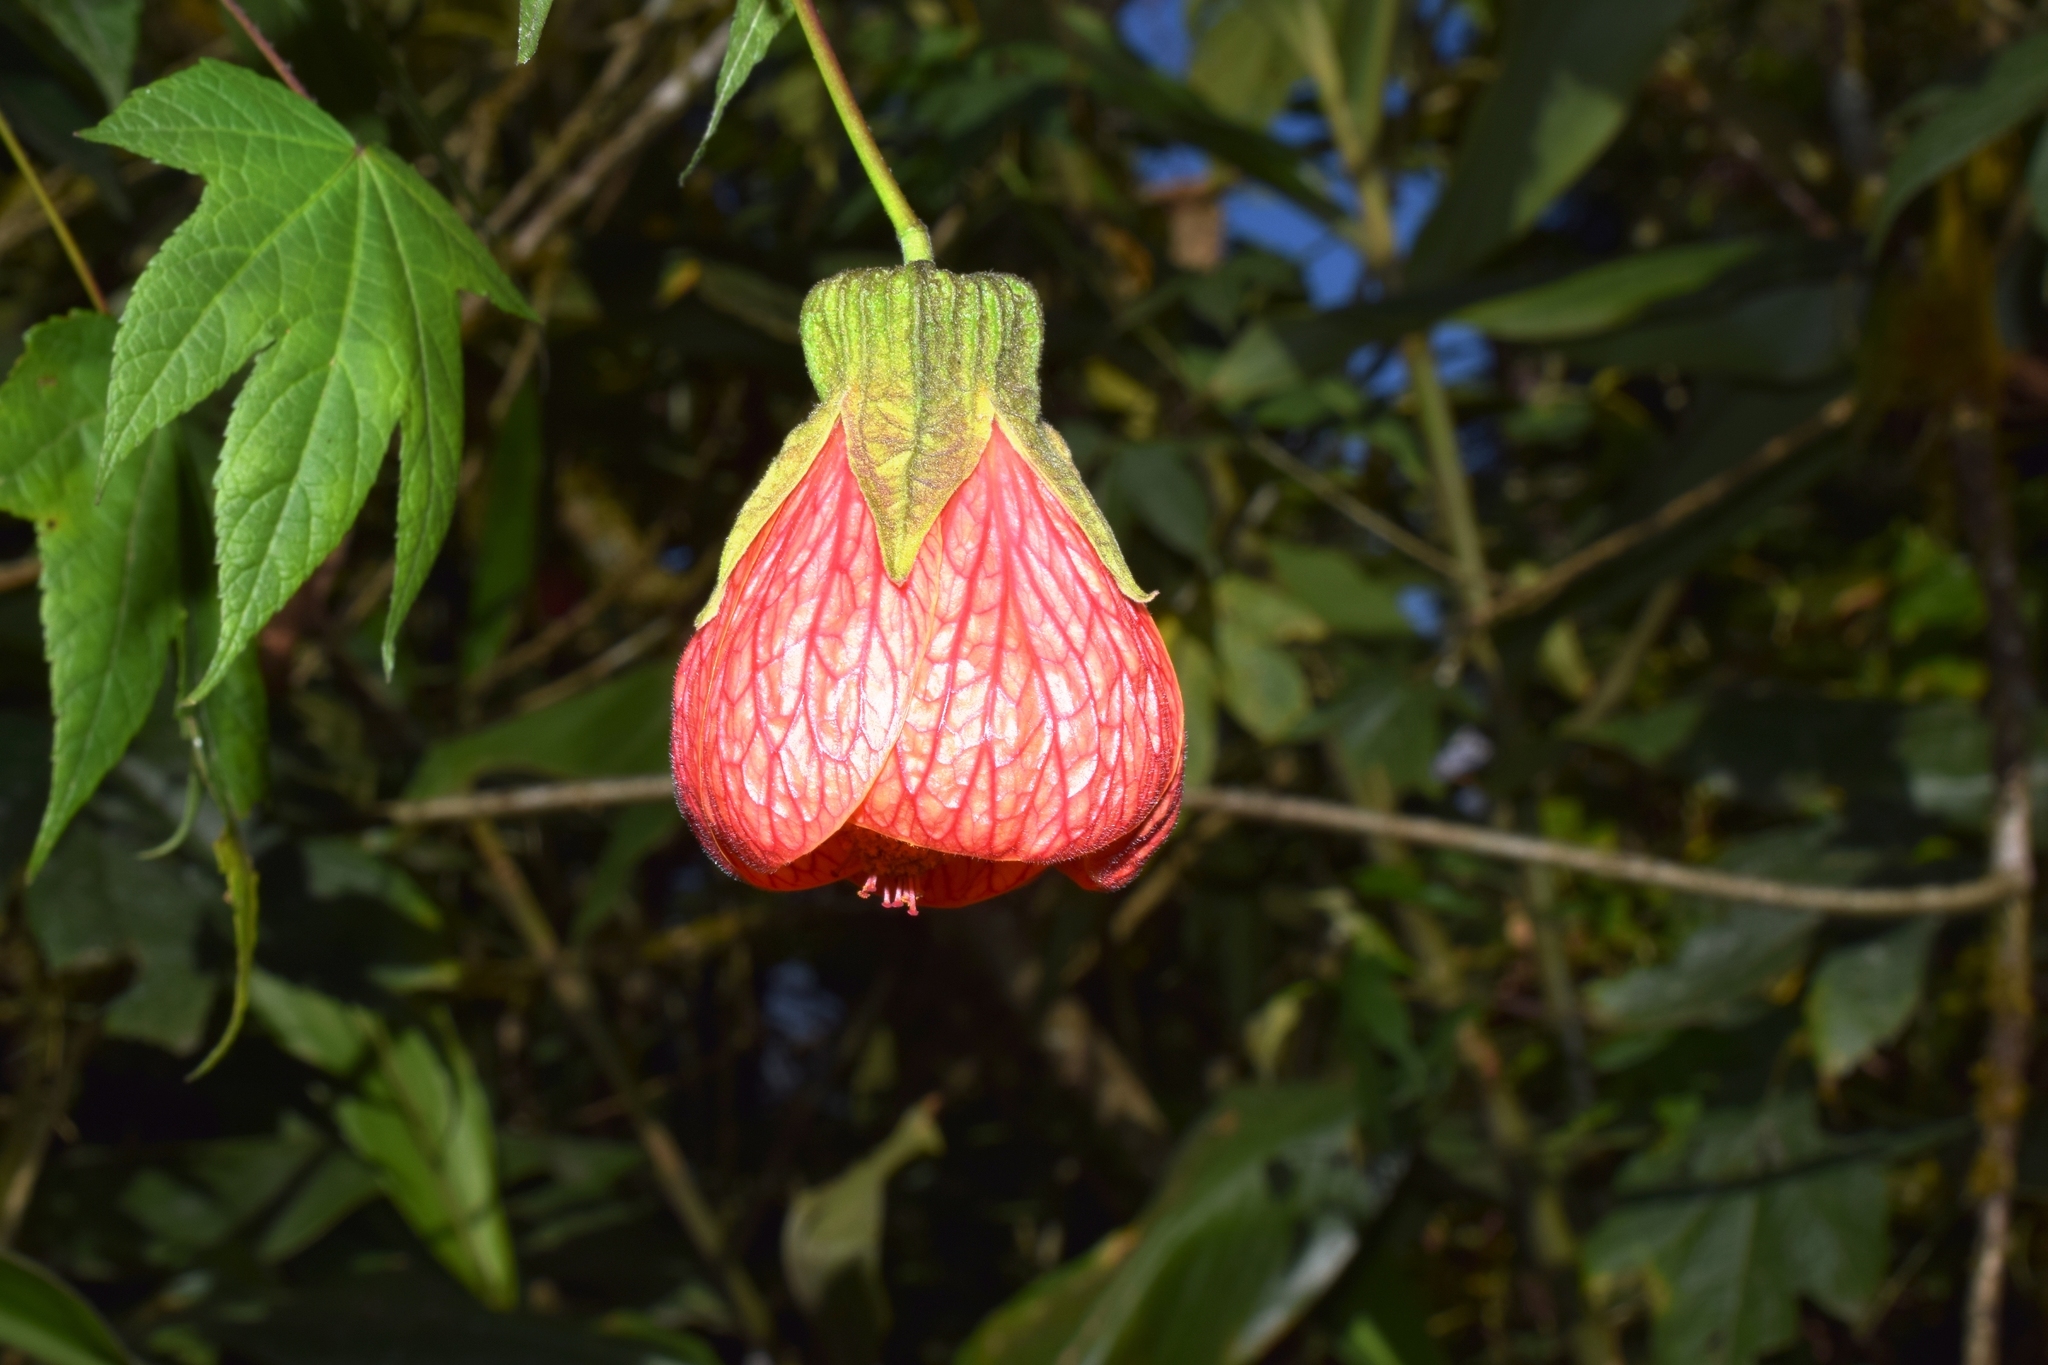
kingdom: Plantae
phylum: Tracheophyta
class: Magnoliopsida
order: Malvales
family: Malvaceae
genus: Callianthe
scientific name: Callianthe picta
